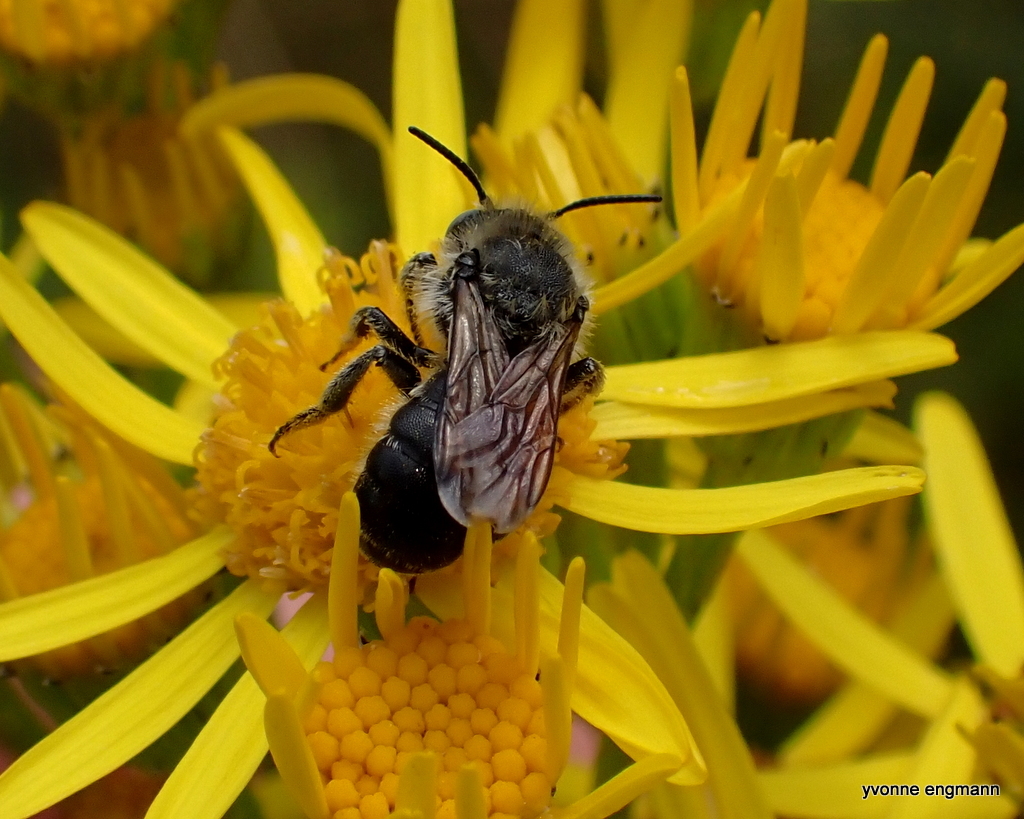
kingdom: Animalia
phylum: Arthropoda
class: Insecta
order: Hymenoptera
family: Megachilidae
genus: Osmia
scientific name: Osmia spinulosa
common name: Spined mason bee
